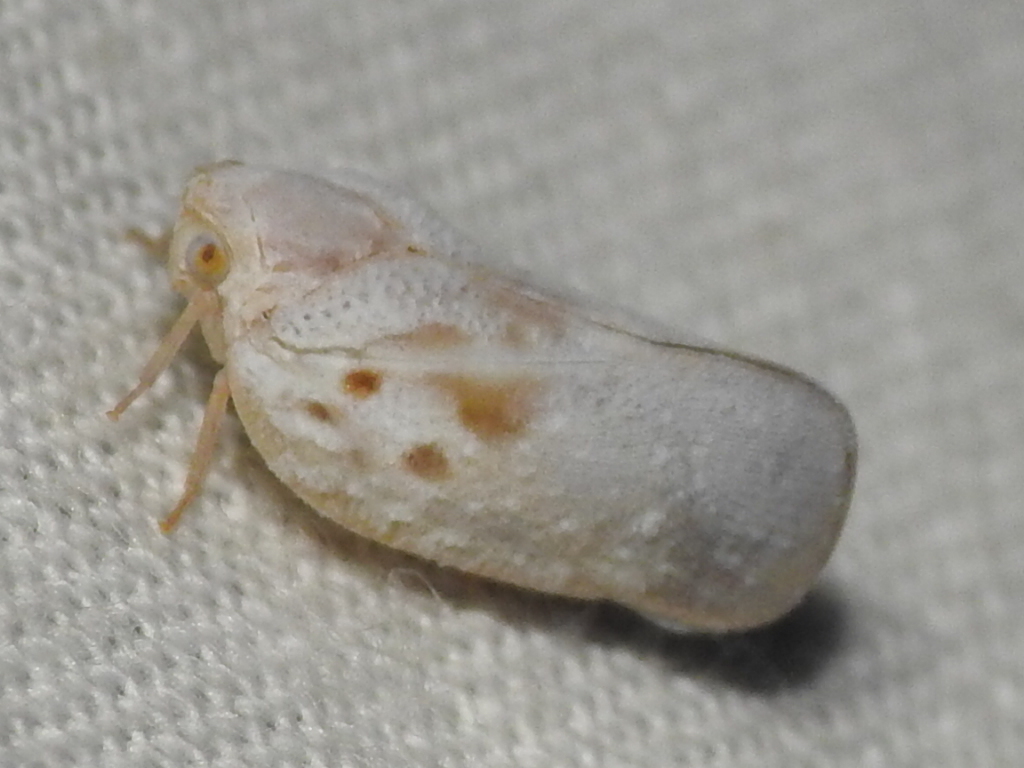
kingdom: Animalia
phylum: Arthropoda
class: Insecta
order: Hemiptera
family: Flatidae
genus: Metcalfa
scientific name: Metcalfa pruinosa
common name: Citrus flatid planthopper
